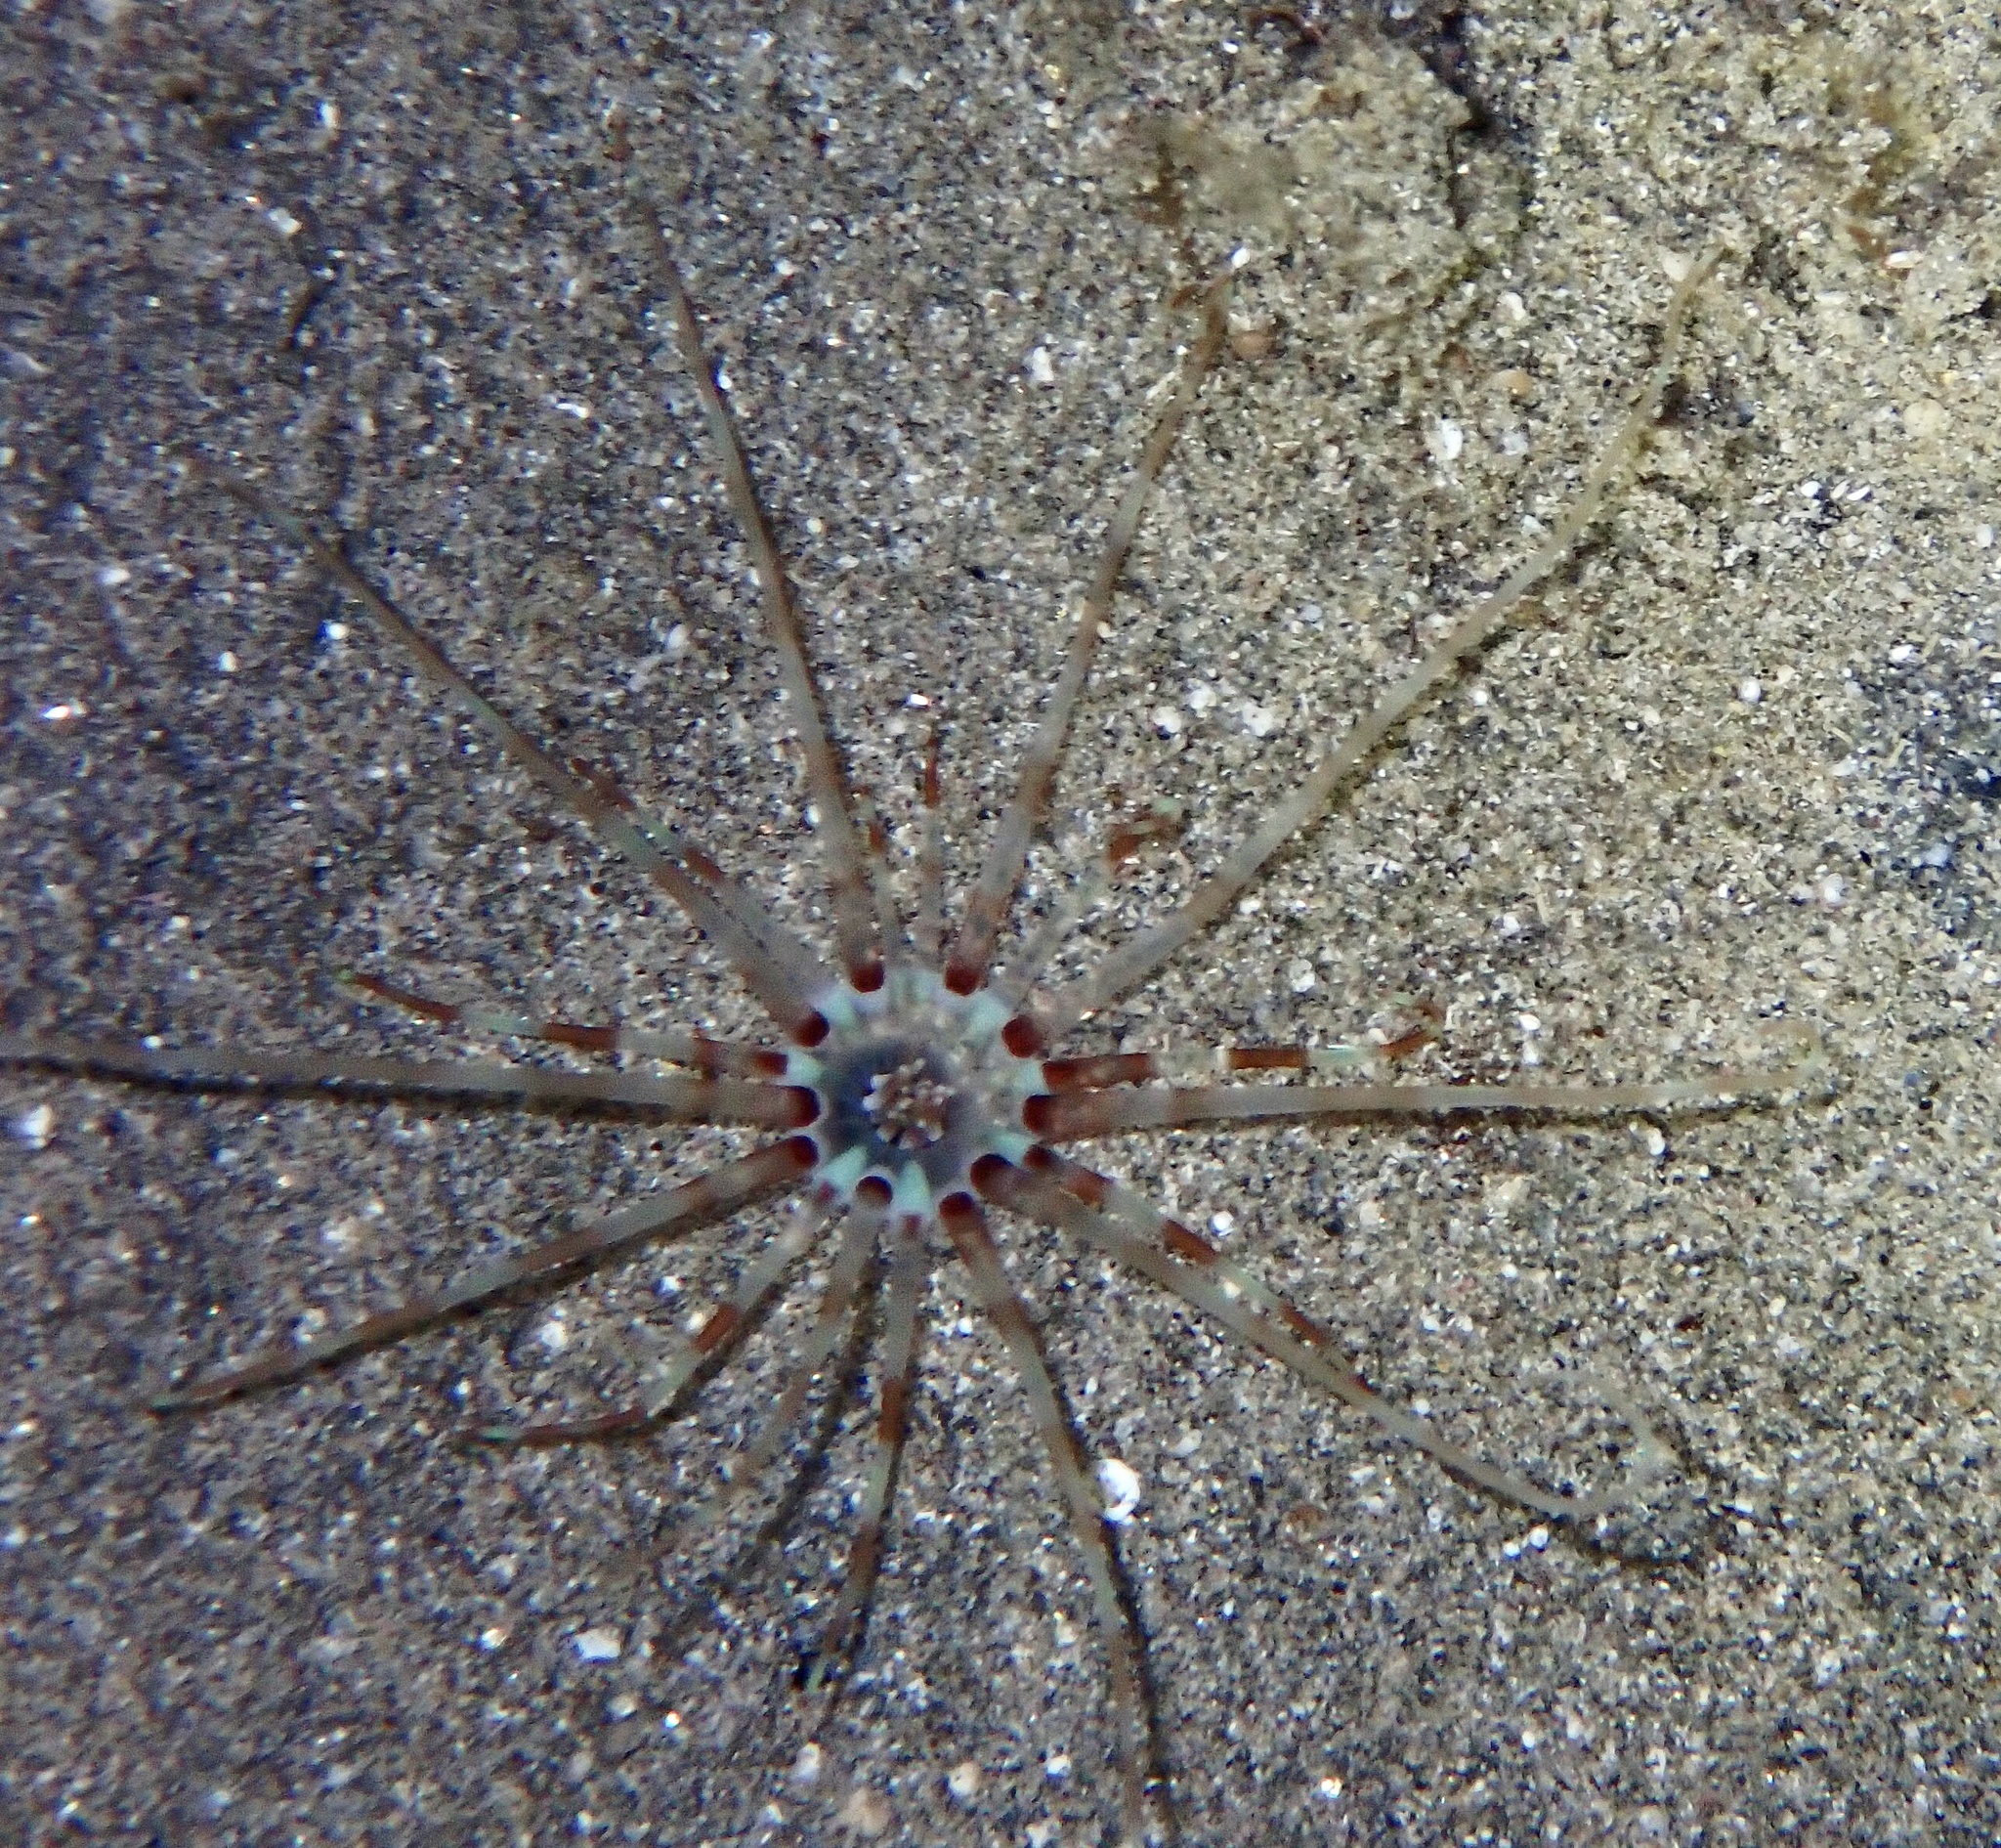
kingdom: Animalia
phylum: Cnidaria
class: Anthozoa
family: Arachnactidae
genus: Arachnanthus
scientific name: Arachnanthus lilith
